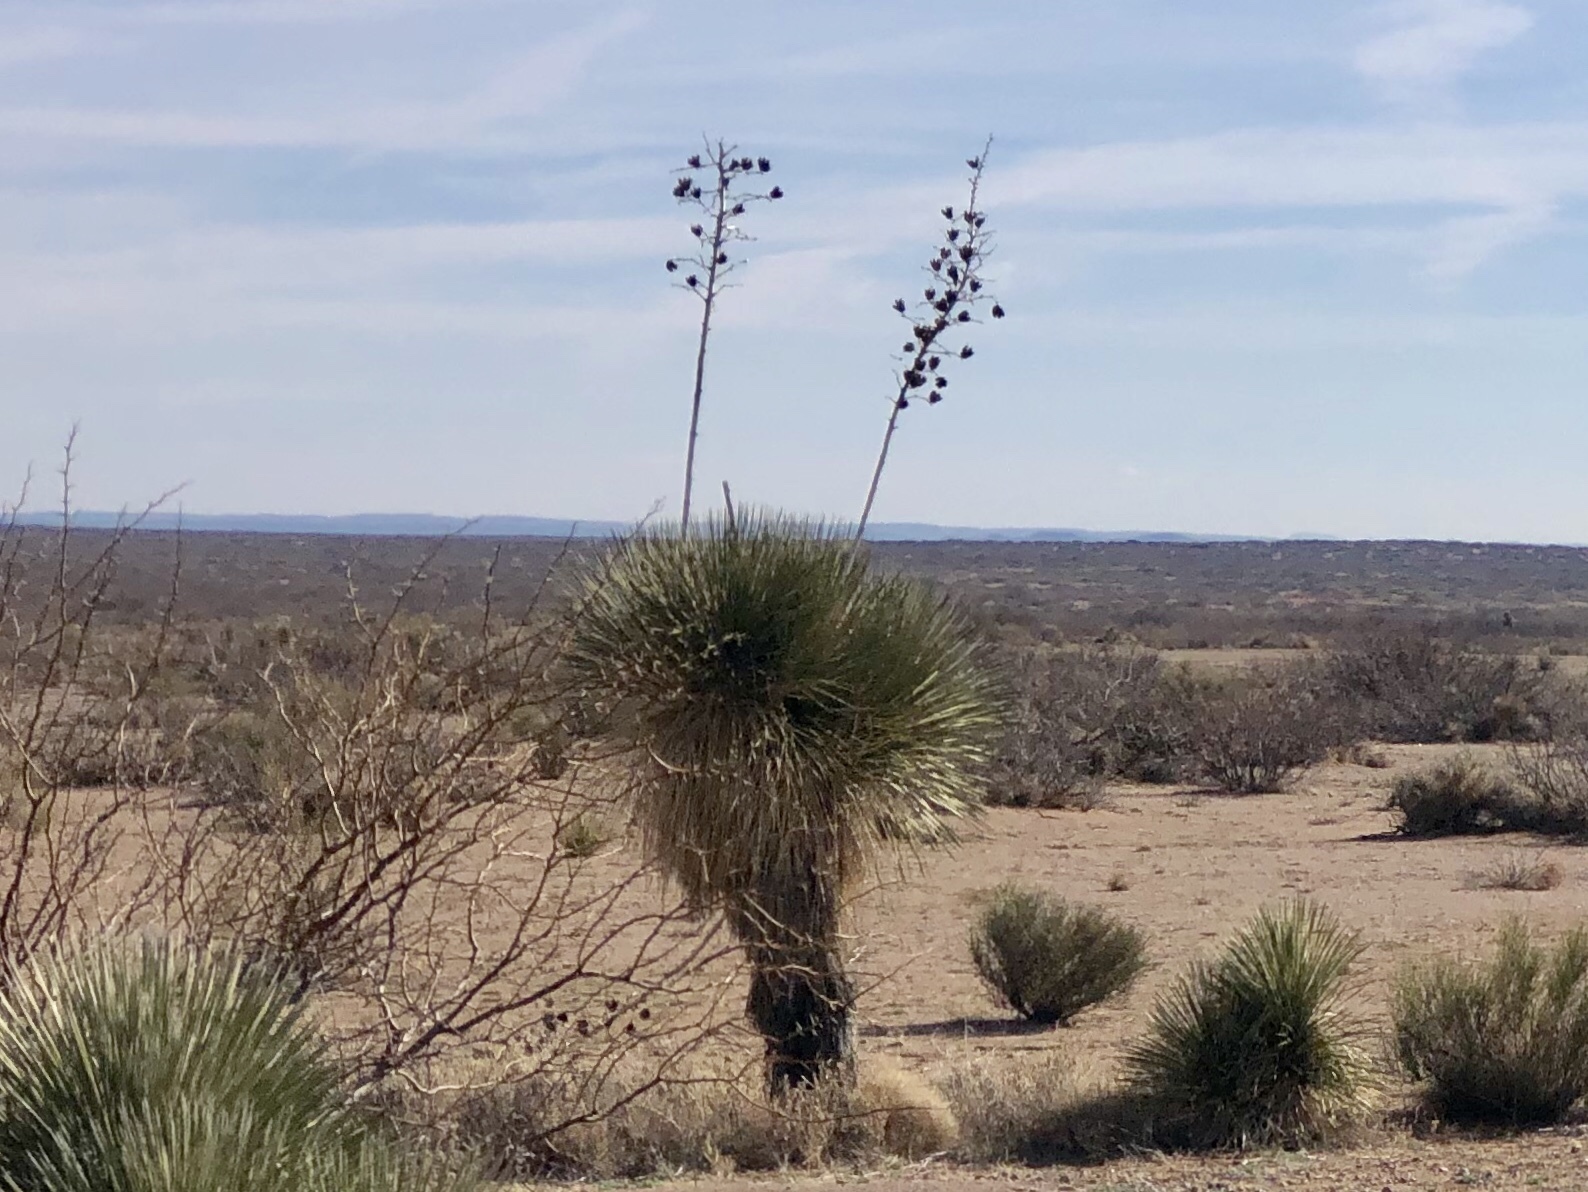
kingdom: Plantae
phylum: Tracheophyta
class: Liliopsida
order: Asparagales
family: Asparagaceae
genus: Yucca
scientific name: Yucca elata
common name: Palmella
